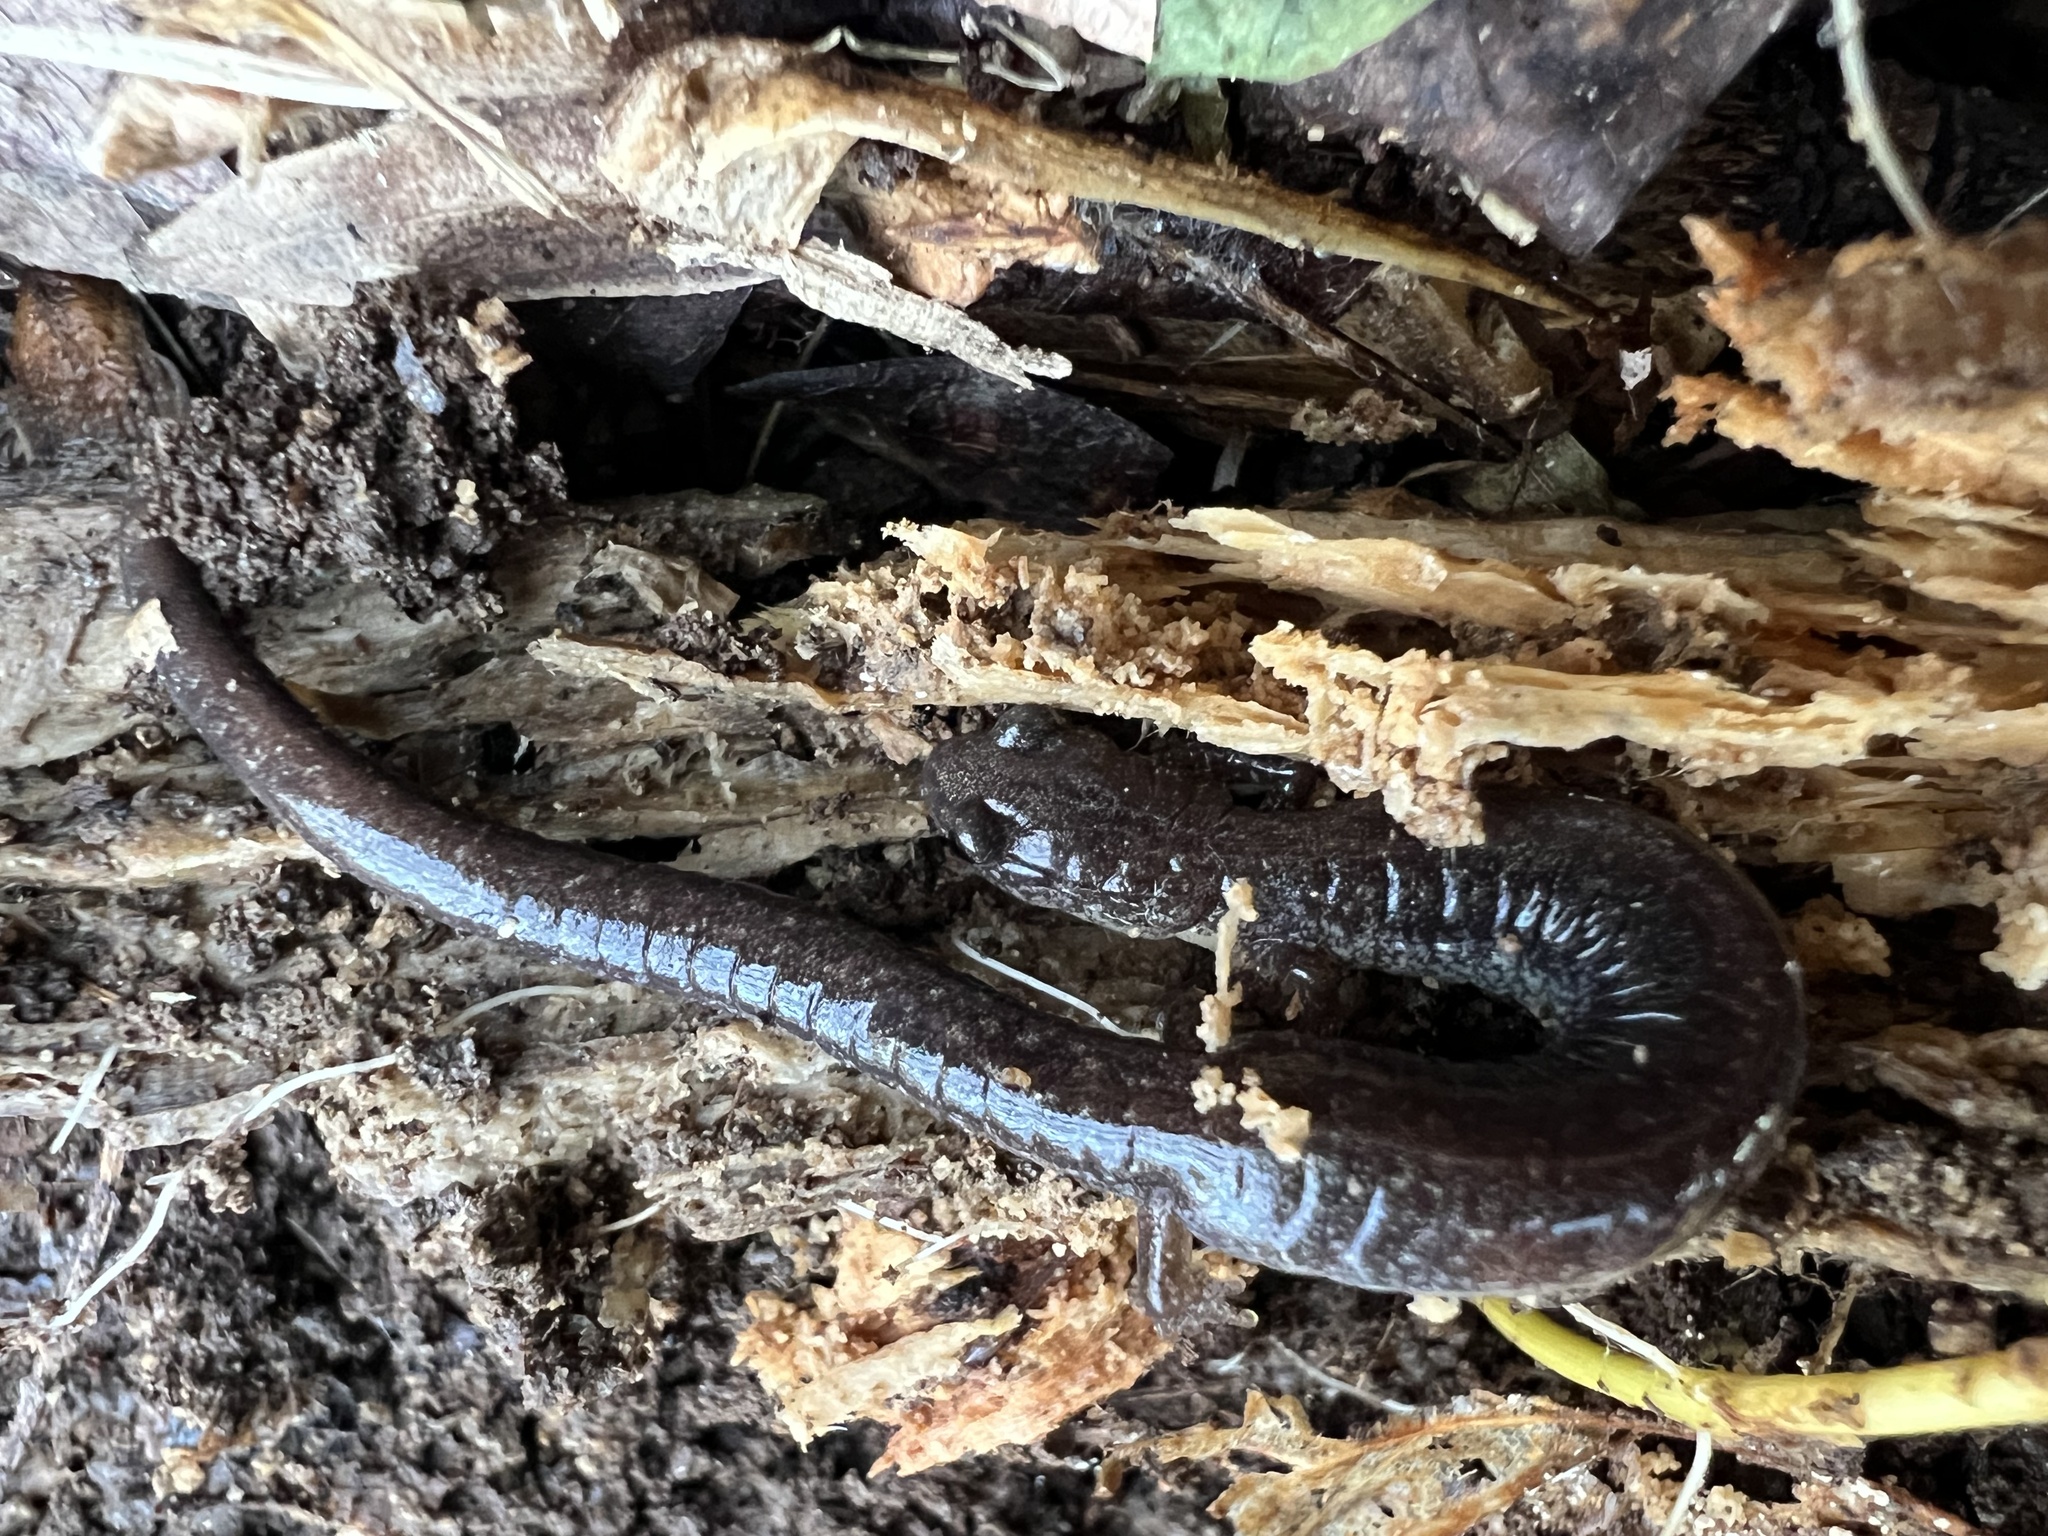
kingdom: Animalia
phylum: Chordata
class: Amphibia
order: Caudata
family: Plethodontidae
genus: Plethodon
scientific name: Plethodon cinereus
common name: Redback salamander
